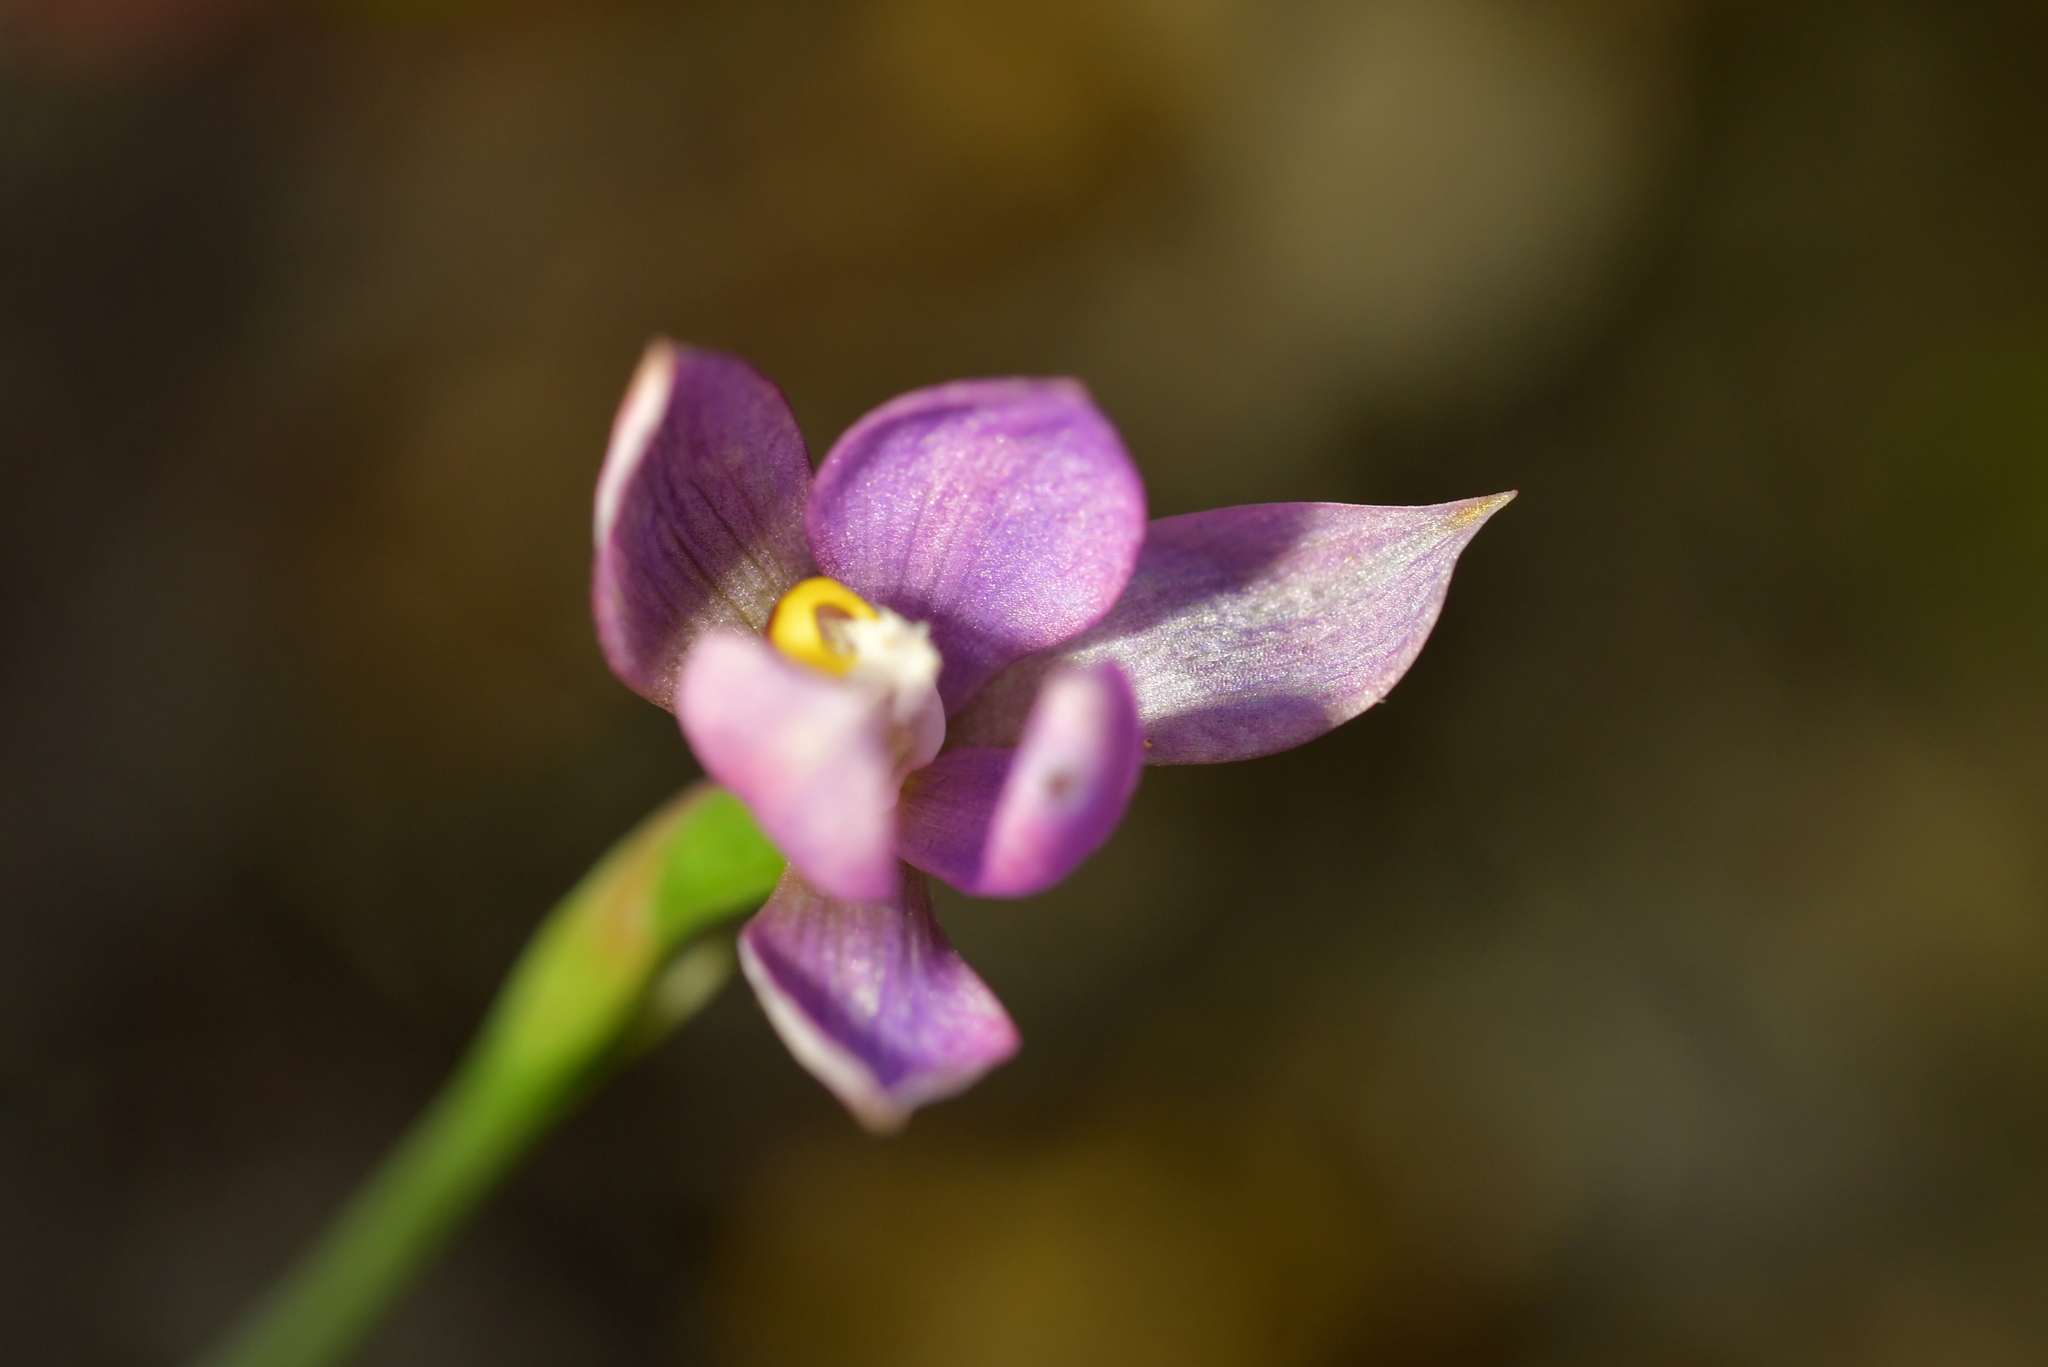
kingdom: Plantae
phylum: Tracheophyta
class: Liliopsida
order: Asparagales
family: Orchidaceae
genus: Thelymitra
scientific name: Thelymitra nervosa
